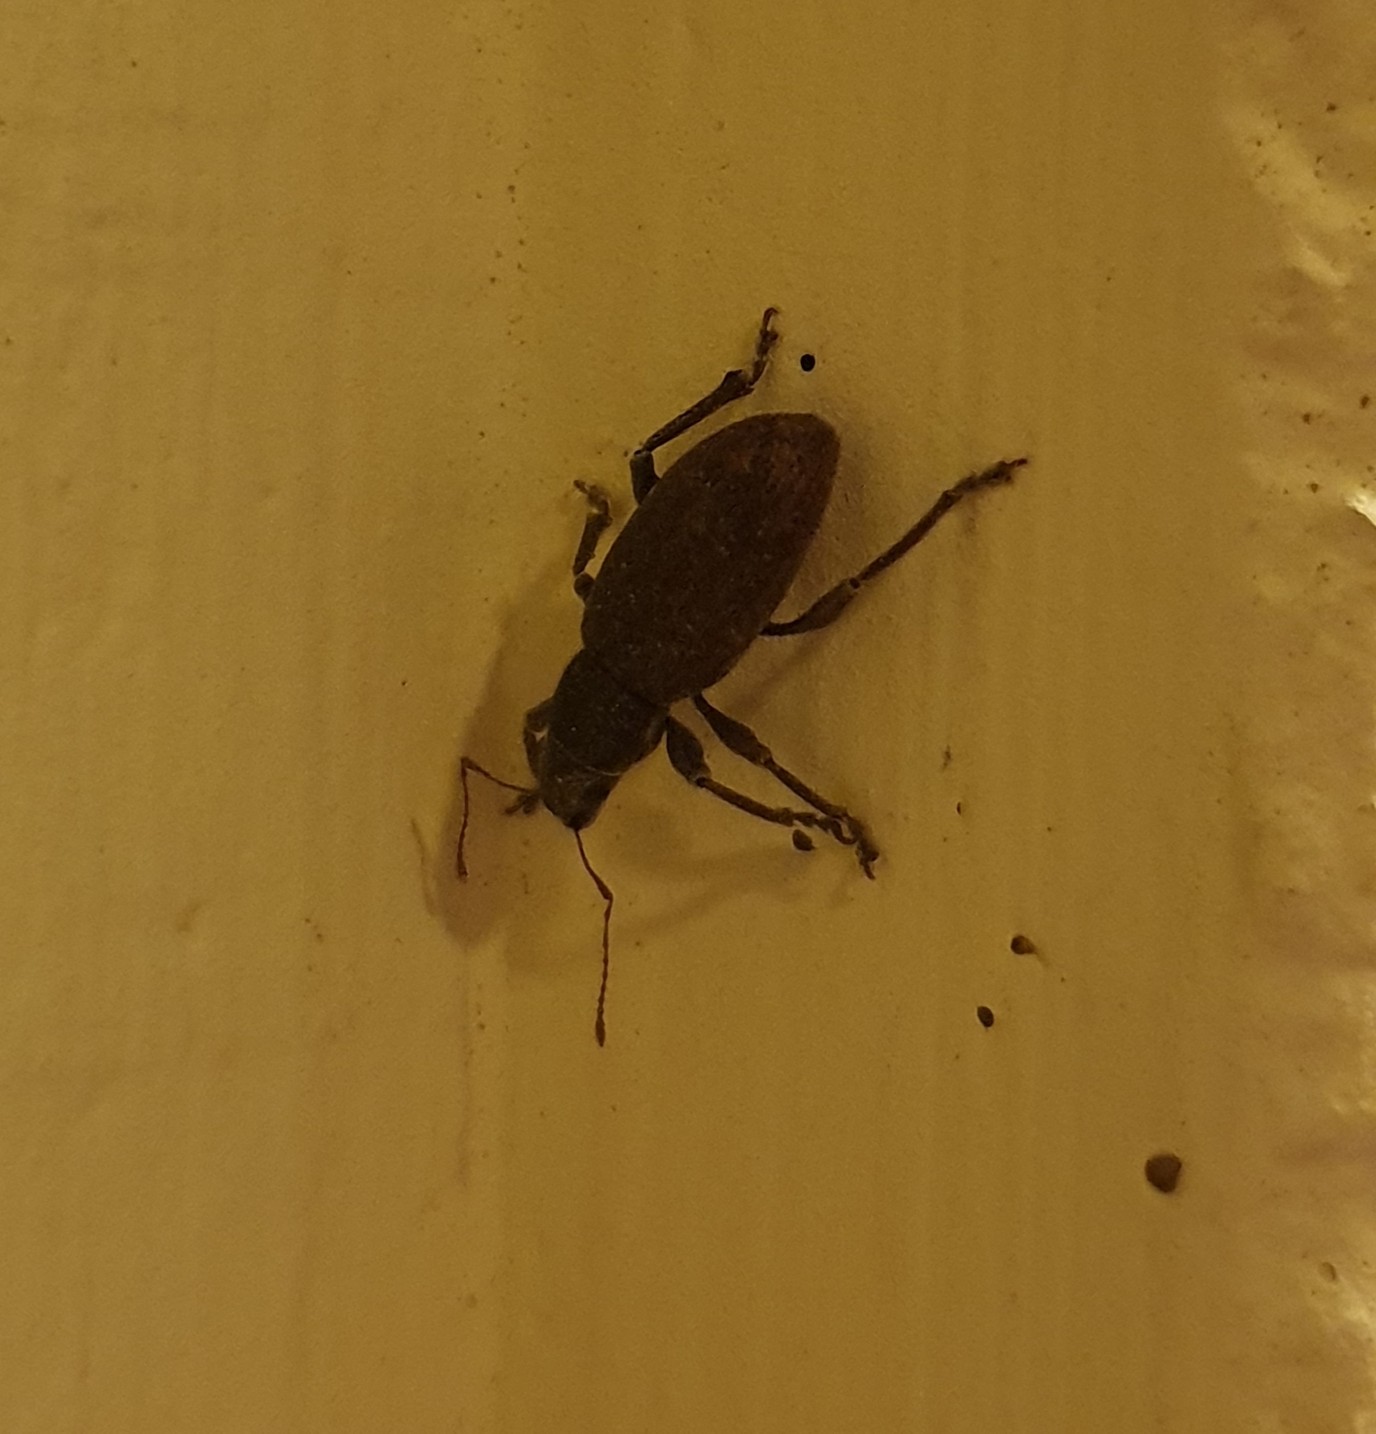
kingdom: Animalia
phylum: Arthropoda
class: Insecta
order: Coleoptera
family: Curculionidae
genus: Brachyderes
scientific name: Brachyderes incanus
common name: Weevil
